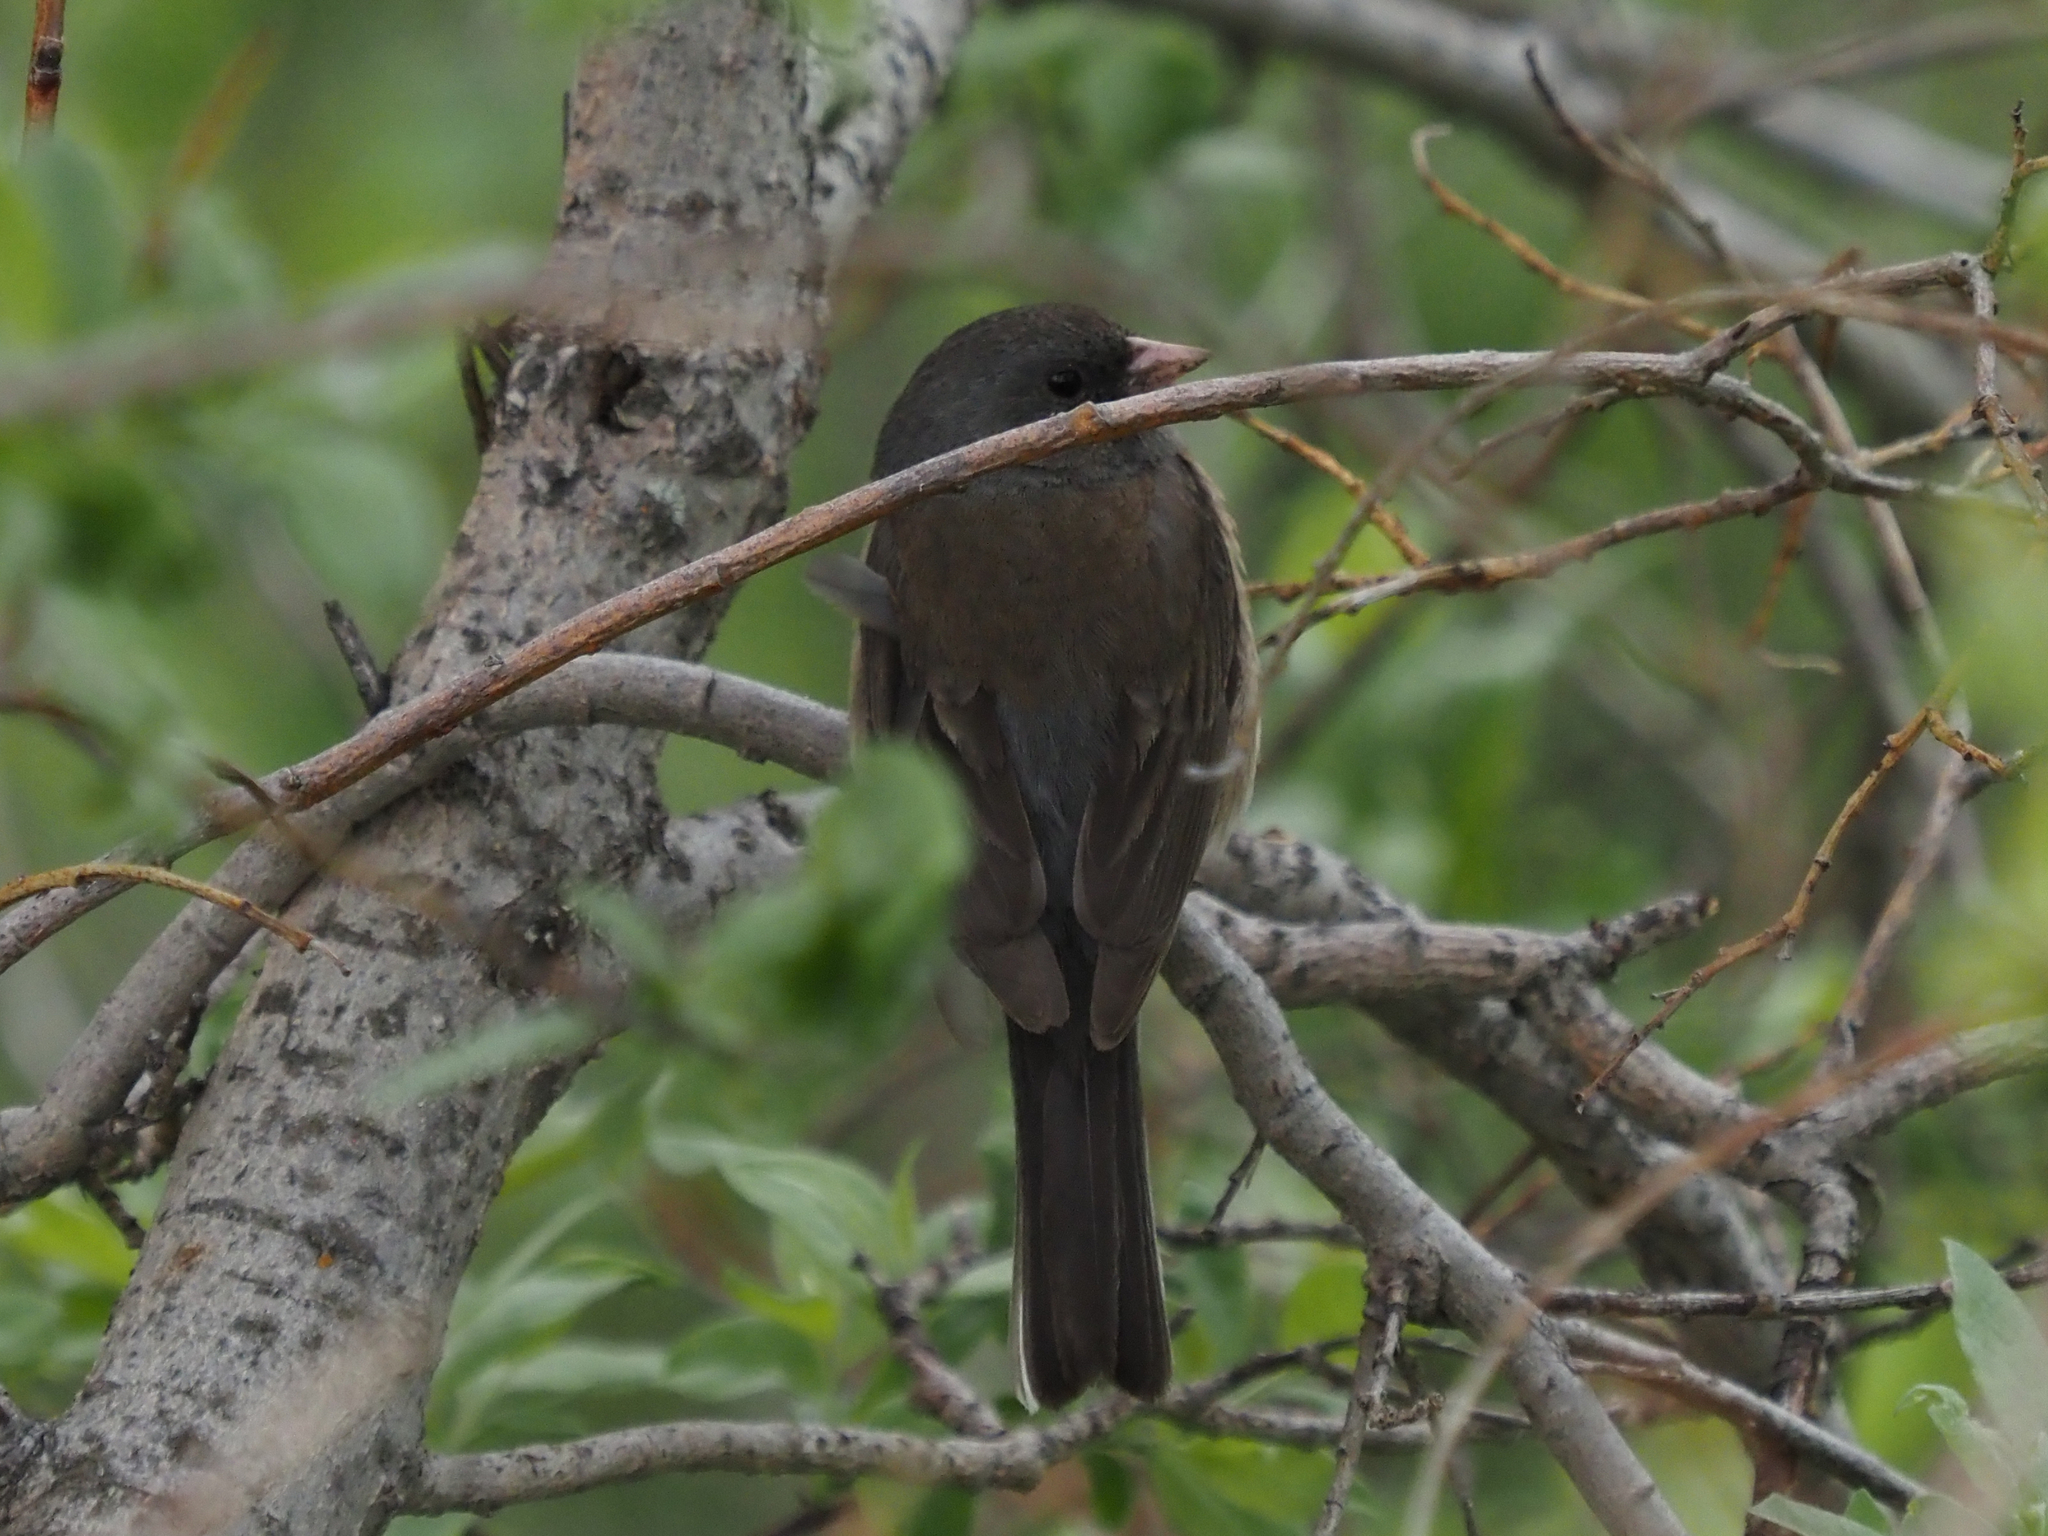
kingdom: Animalia
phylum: Chordata
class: Aves
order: Passeriformes
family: Passerellidae
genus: Junco
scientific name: Junco hyemalis
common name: Dark-eyed junco
